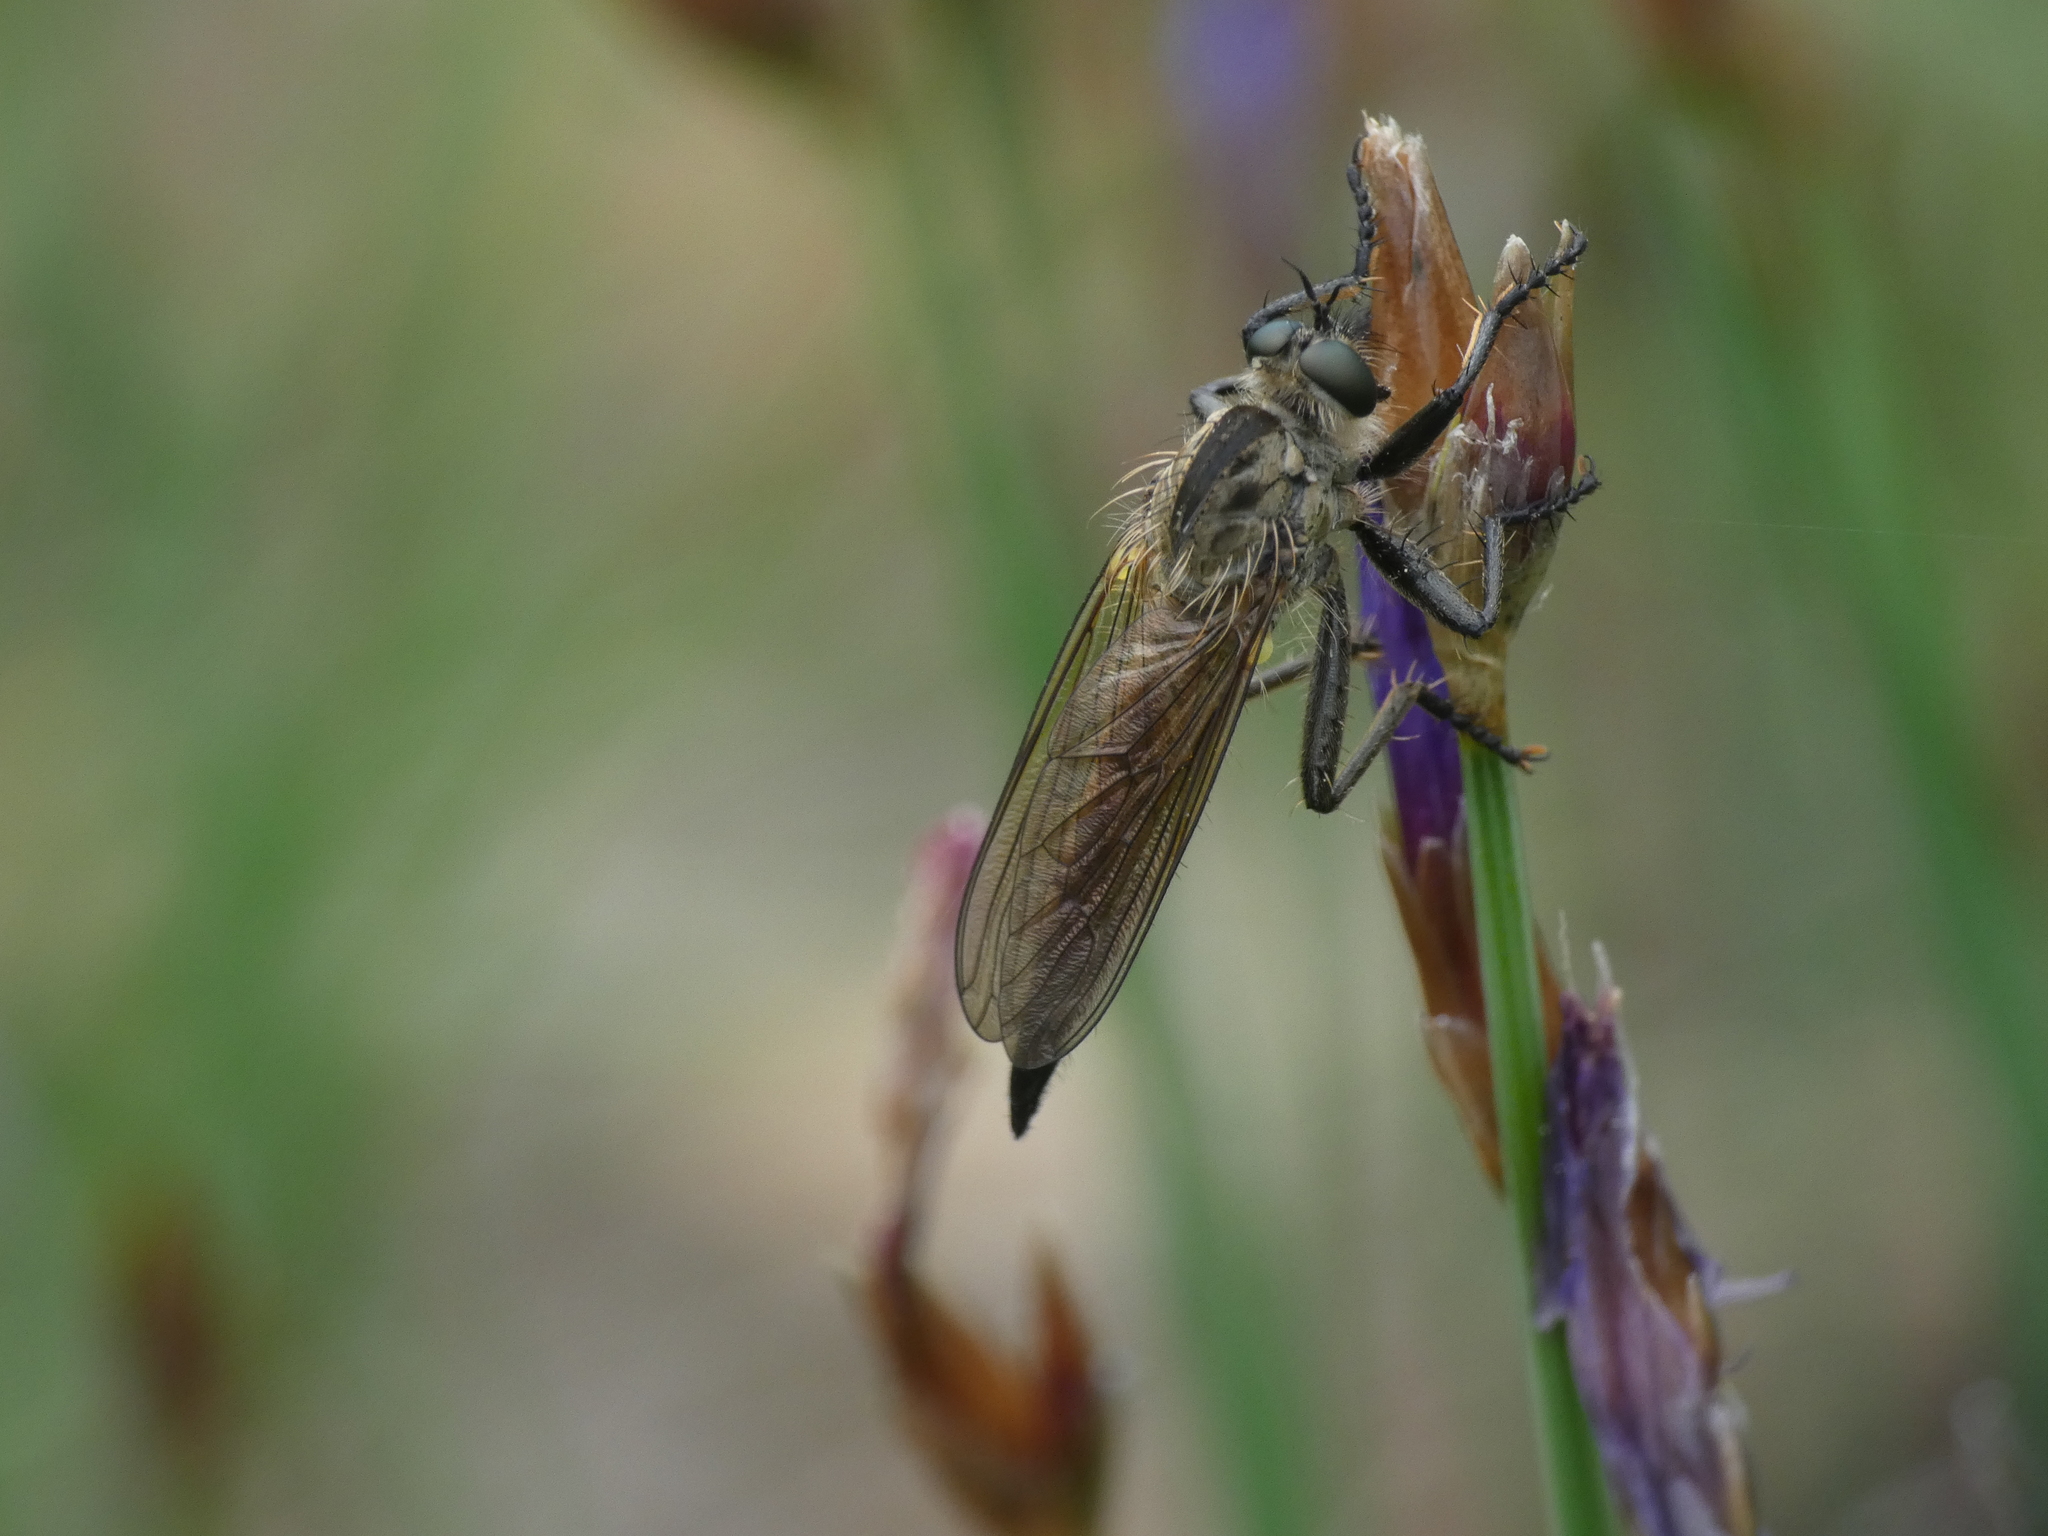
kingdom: Animalia
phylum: Arthropoda
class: Insecta
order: Diptera
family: Asilidae
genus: Dysmachus
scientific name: Dysmachus fuscipennis
